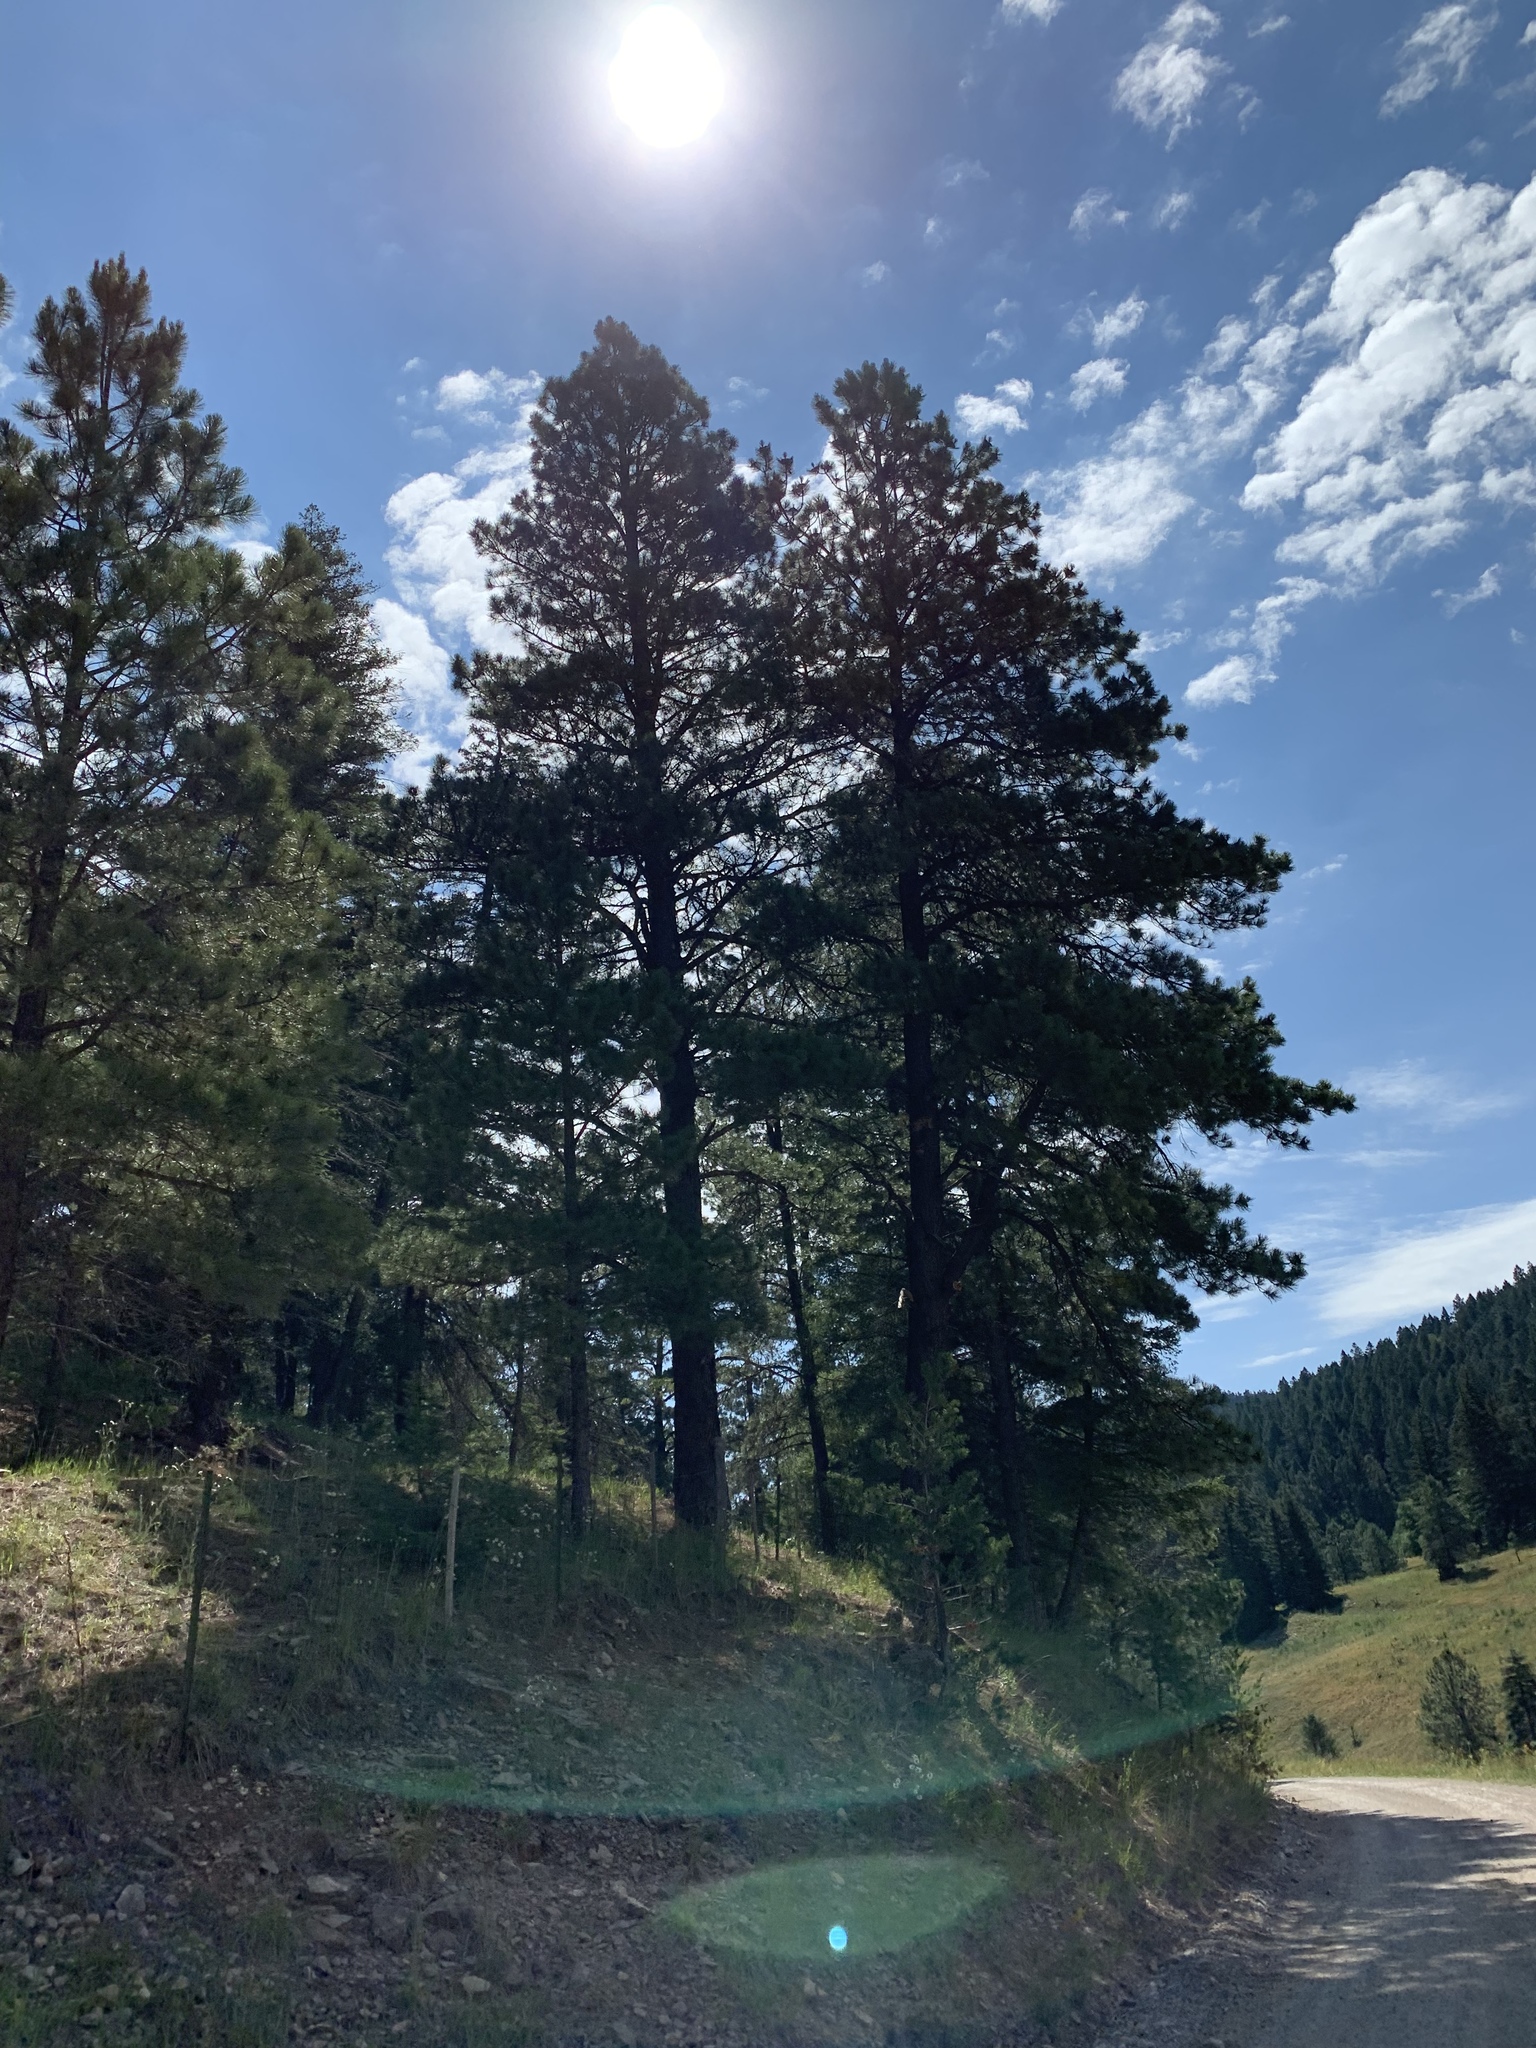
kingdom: Plantae
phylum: Tracheophyta
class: Pinopsida
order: Pinales
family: Pinaceae
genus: Pinus
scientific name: Pinus ponderosa
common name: Western yellow-pine
